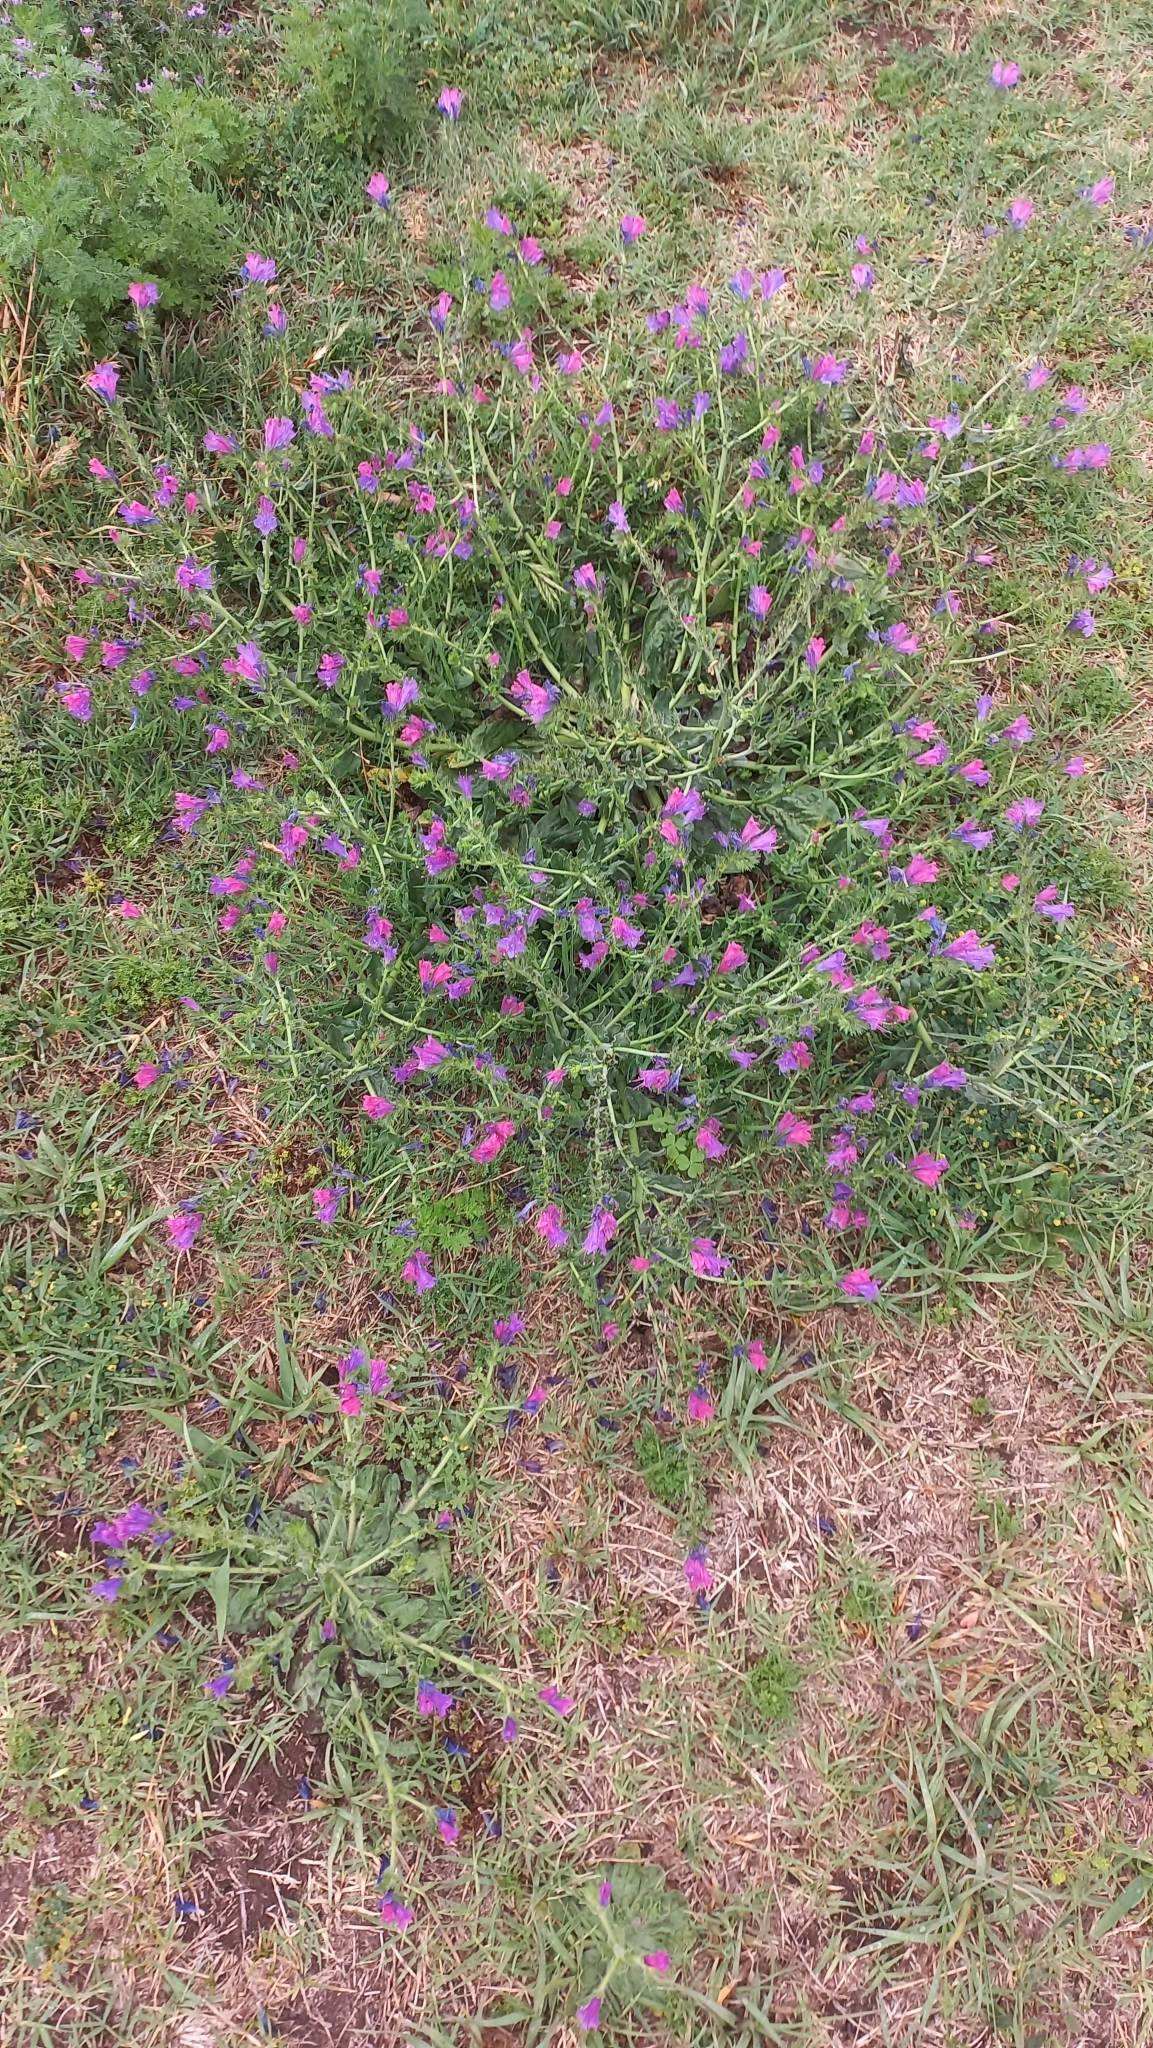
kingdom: Plantae
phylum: Tracheophyta
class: Magnoliopsida
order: Boraginales
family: Boraginaceae
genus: Echium
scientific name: Echium plantagineum
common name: Purple viper's-bugloss
